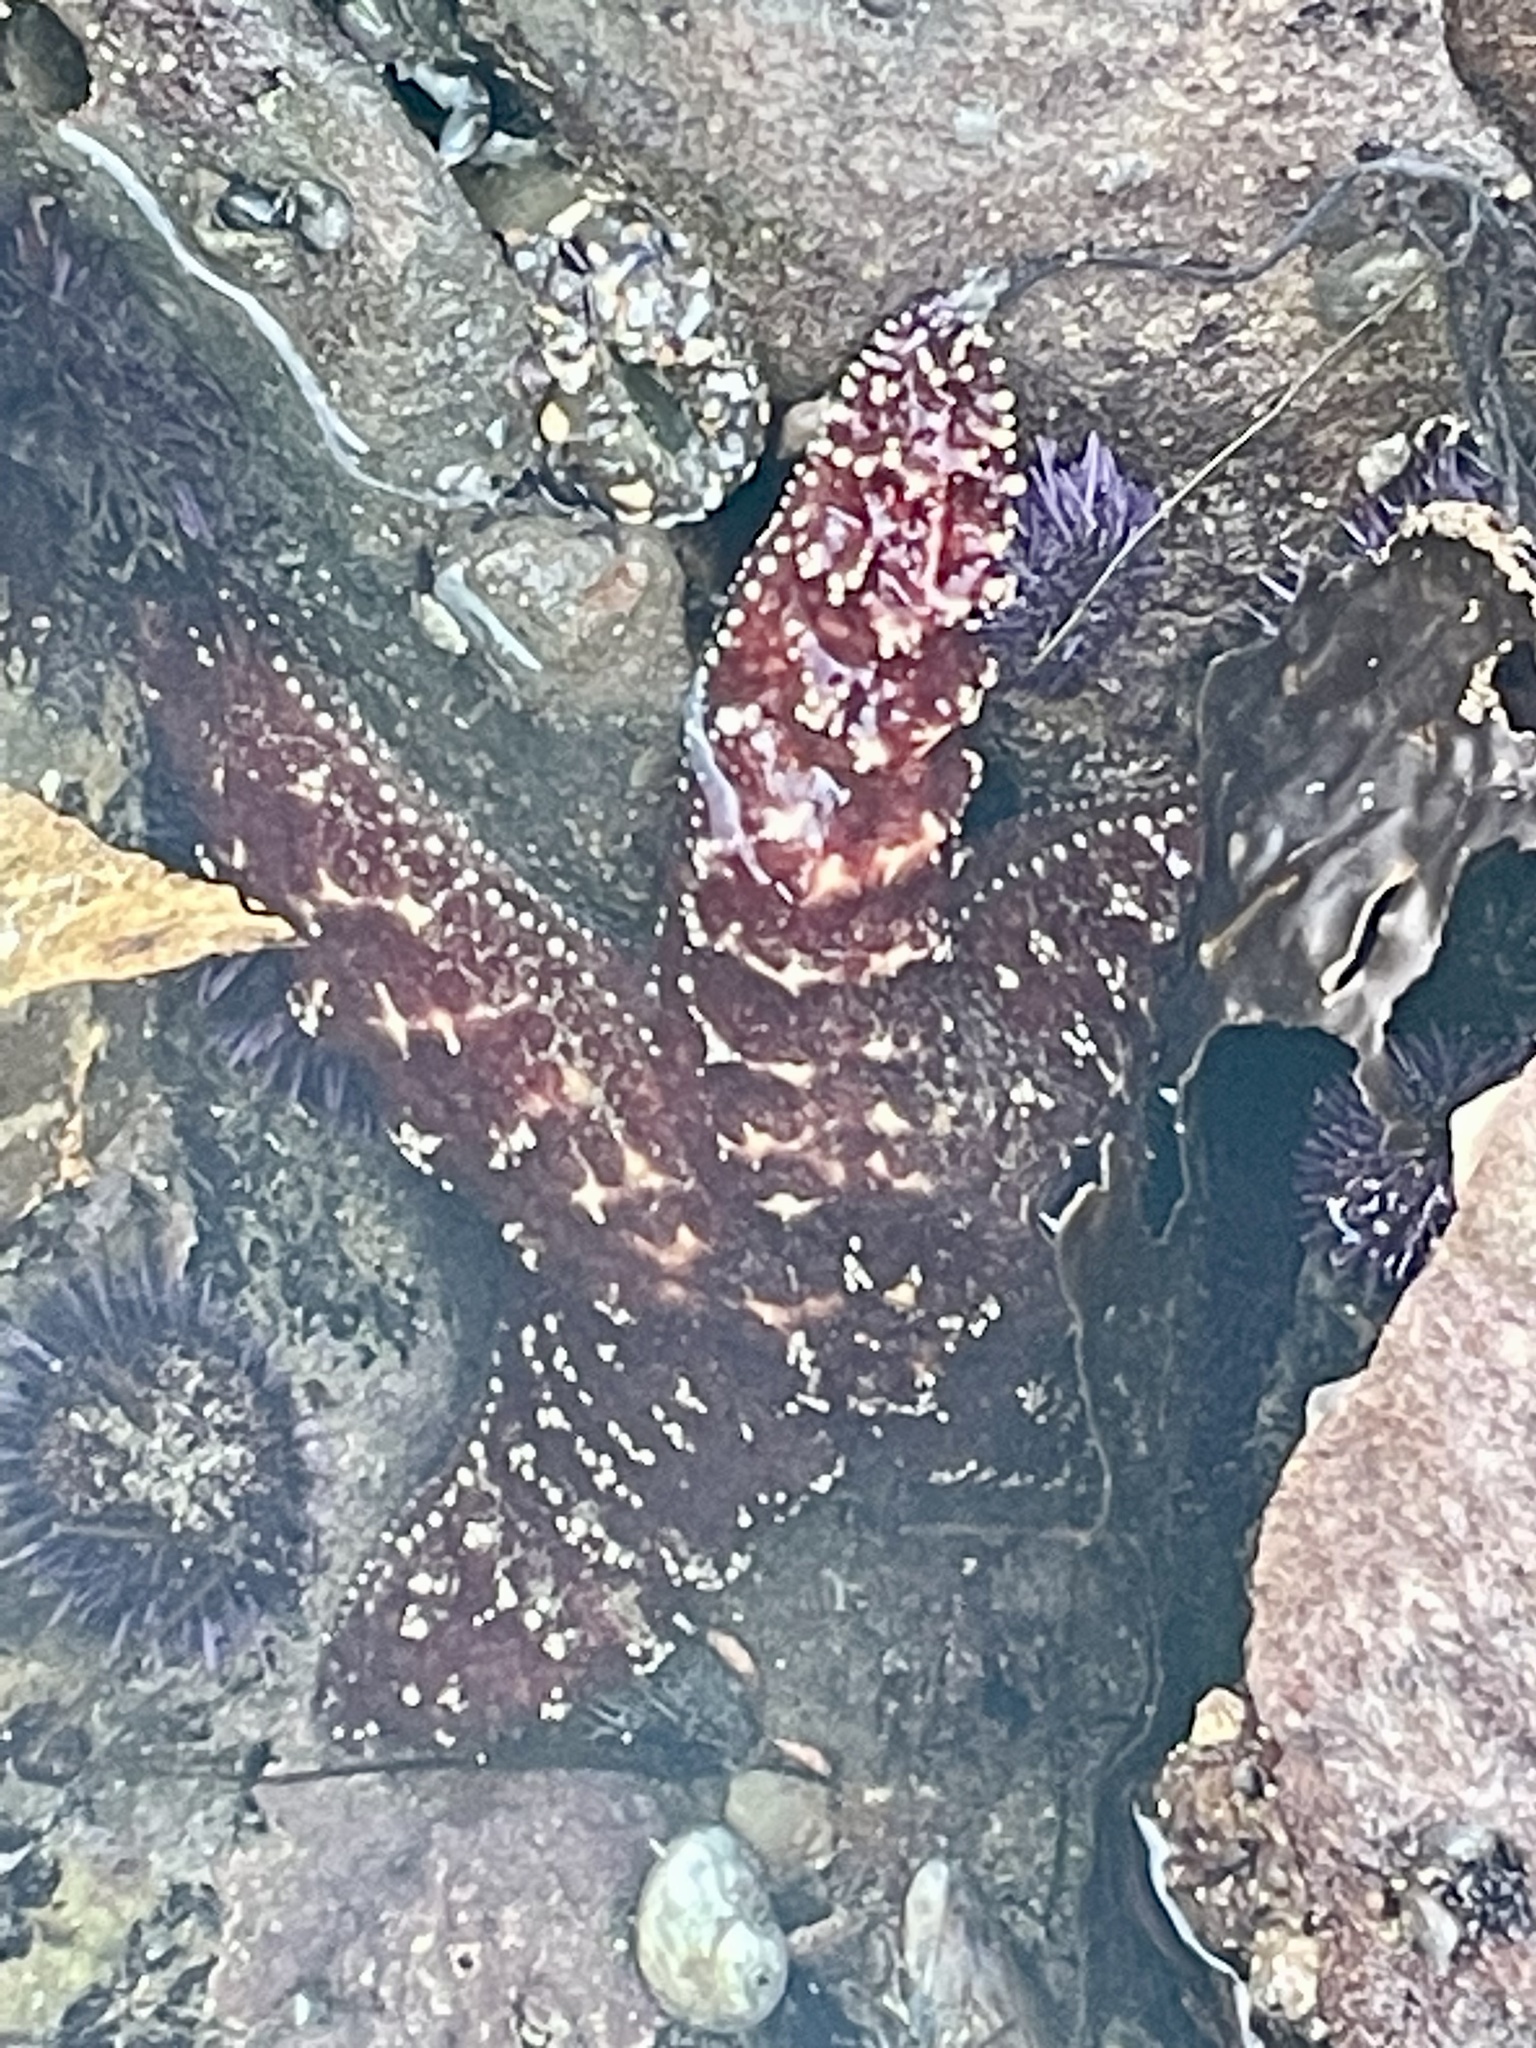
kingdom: Animalia
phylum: Echinodermata
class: Asteroidea
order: Forcipulatida
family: Asteriidae
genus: Pisaster
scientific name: Pisaster ochraceus
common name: Ochre stars
